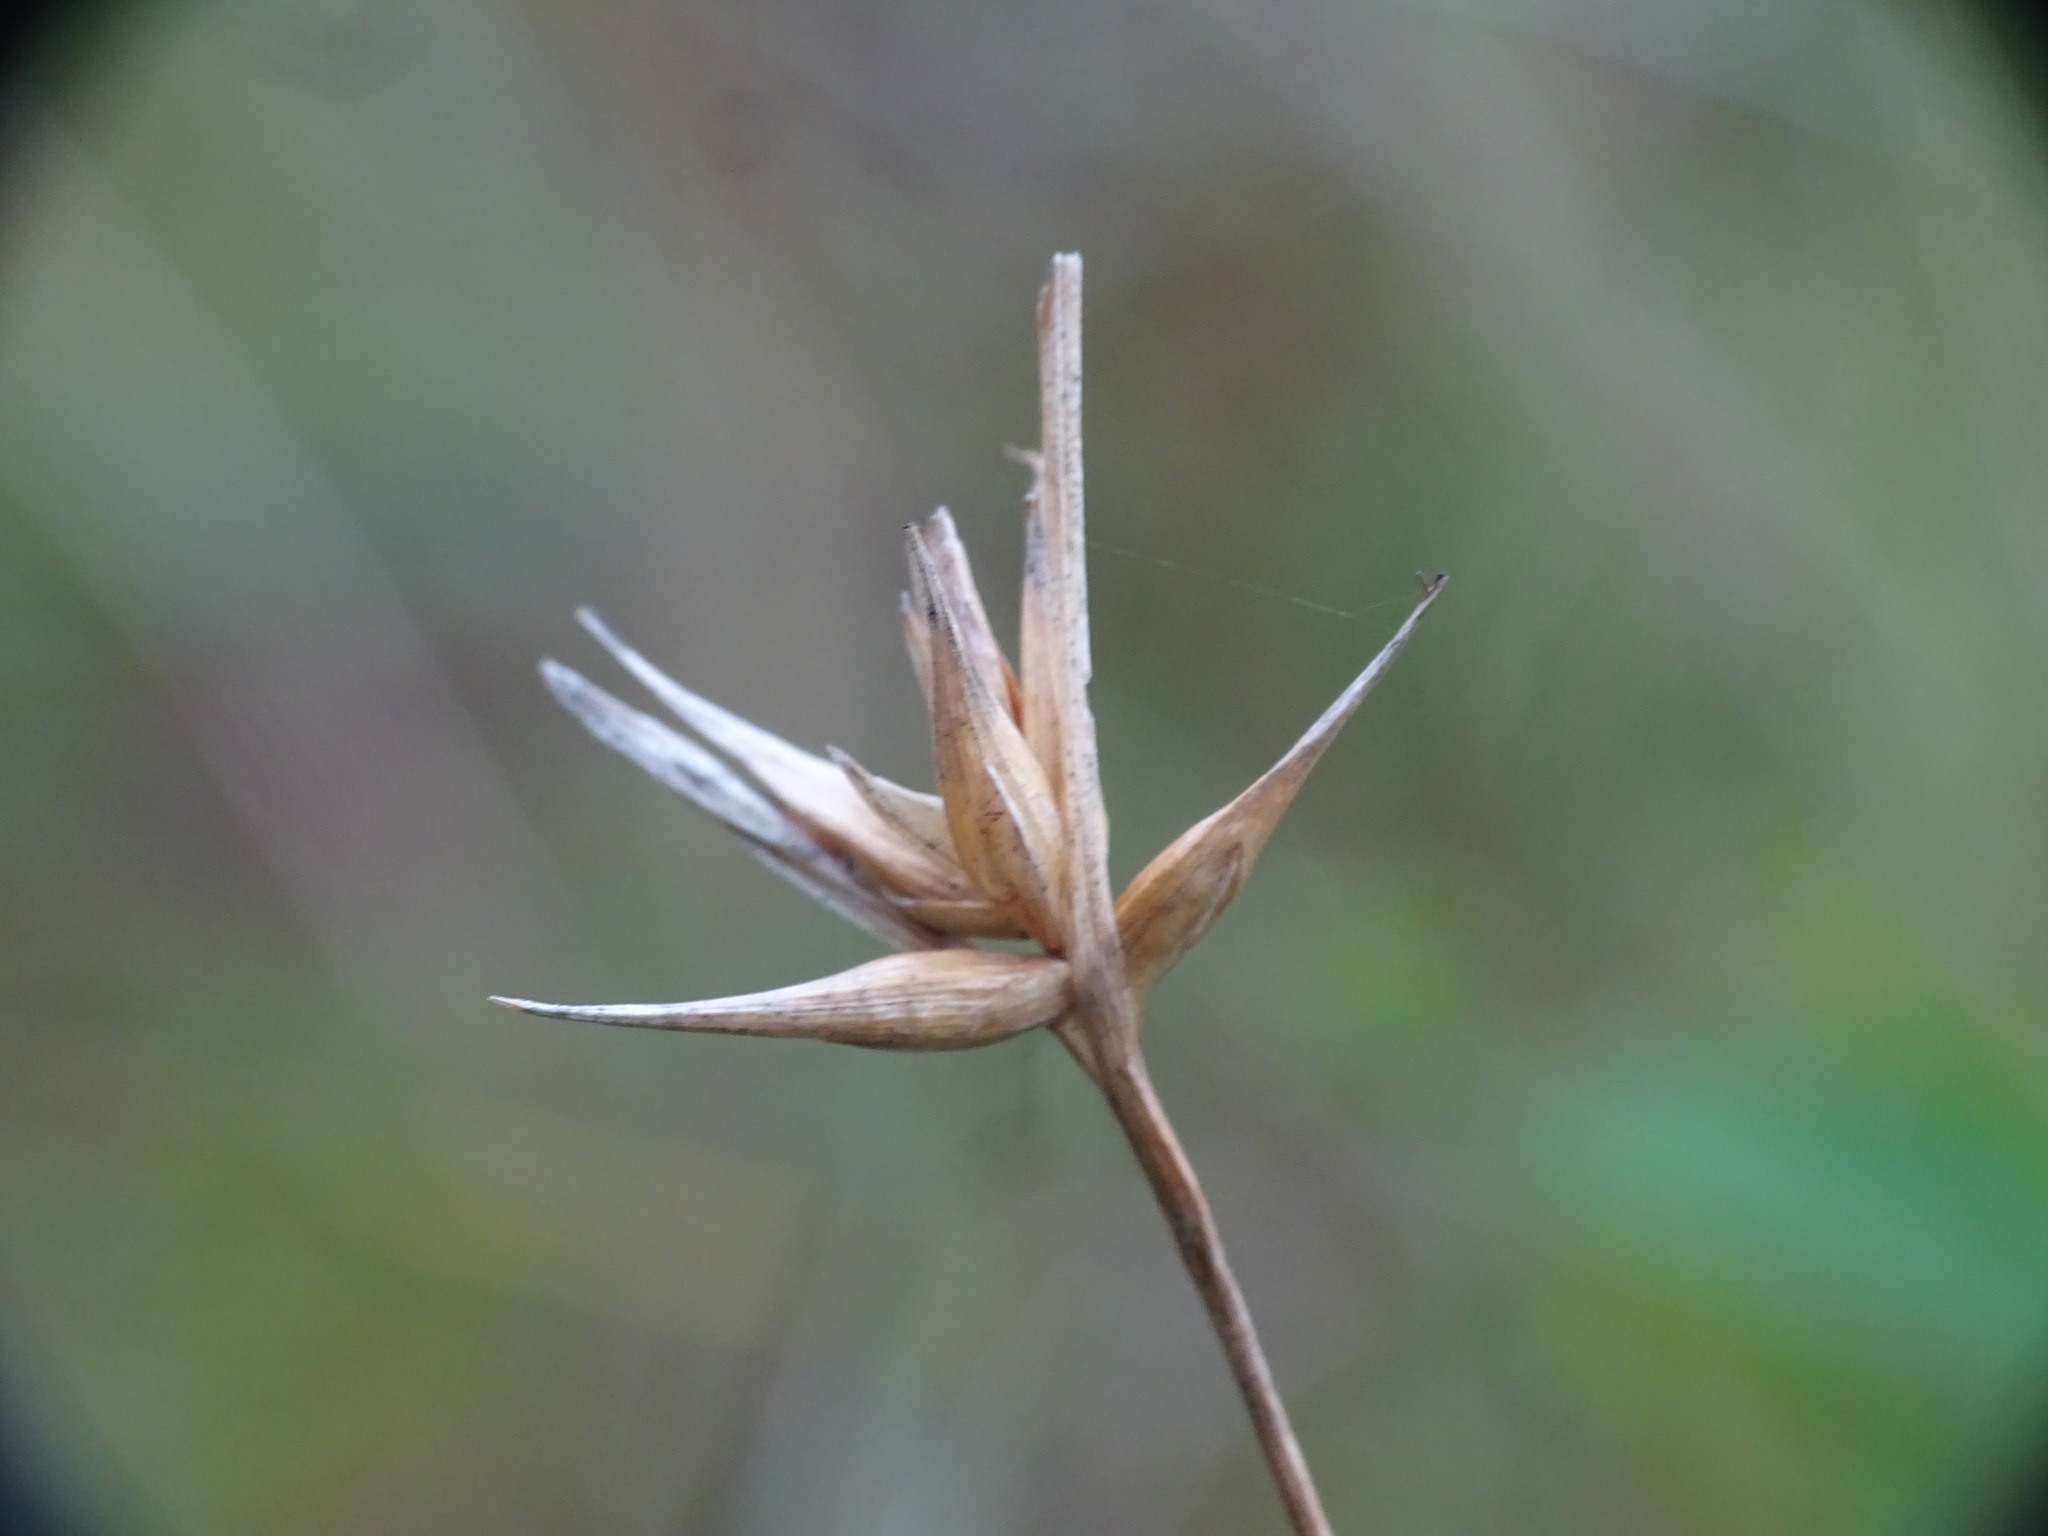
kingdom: Plantae
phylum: Tracheophyta
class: Liliopsida
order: Poales
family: Cyperaceae
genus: Carex
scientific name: Carex michauxiana
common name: Michaux's sedge
